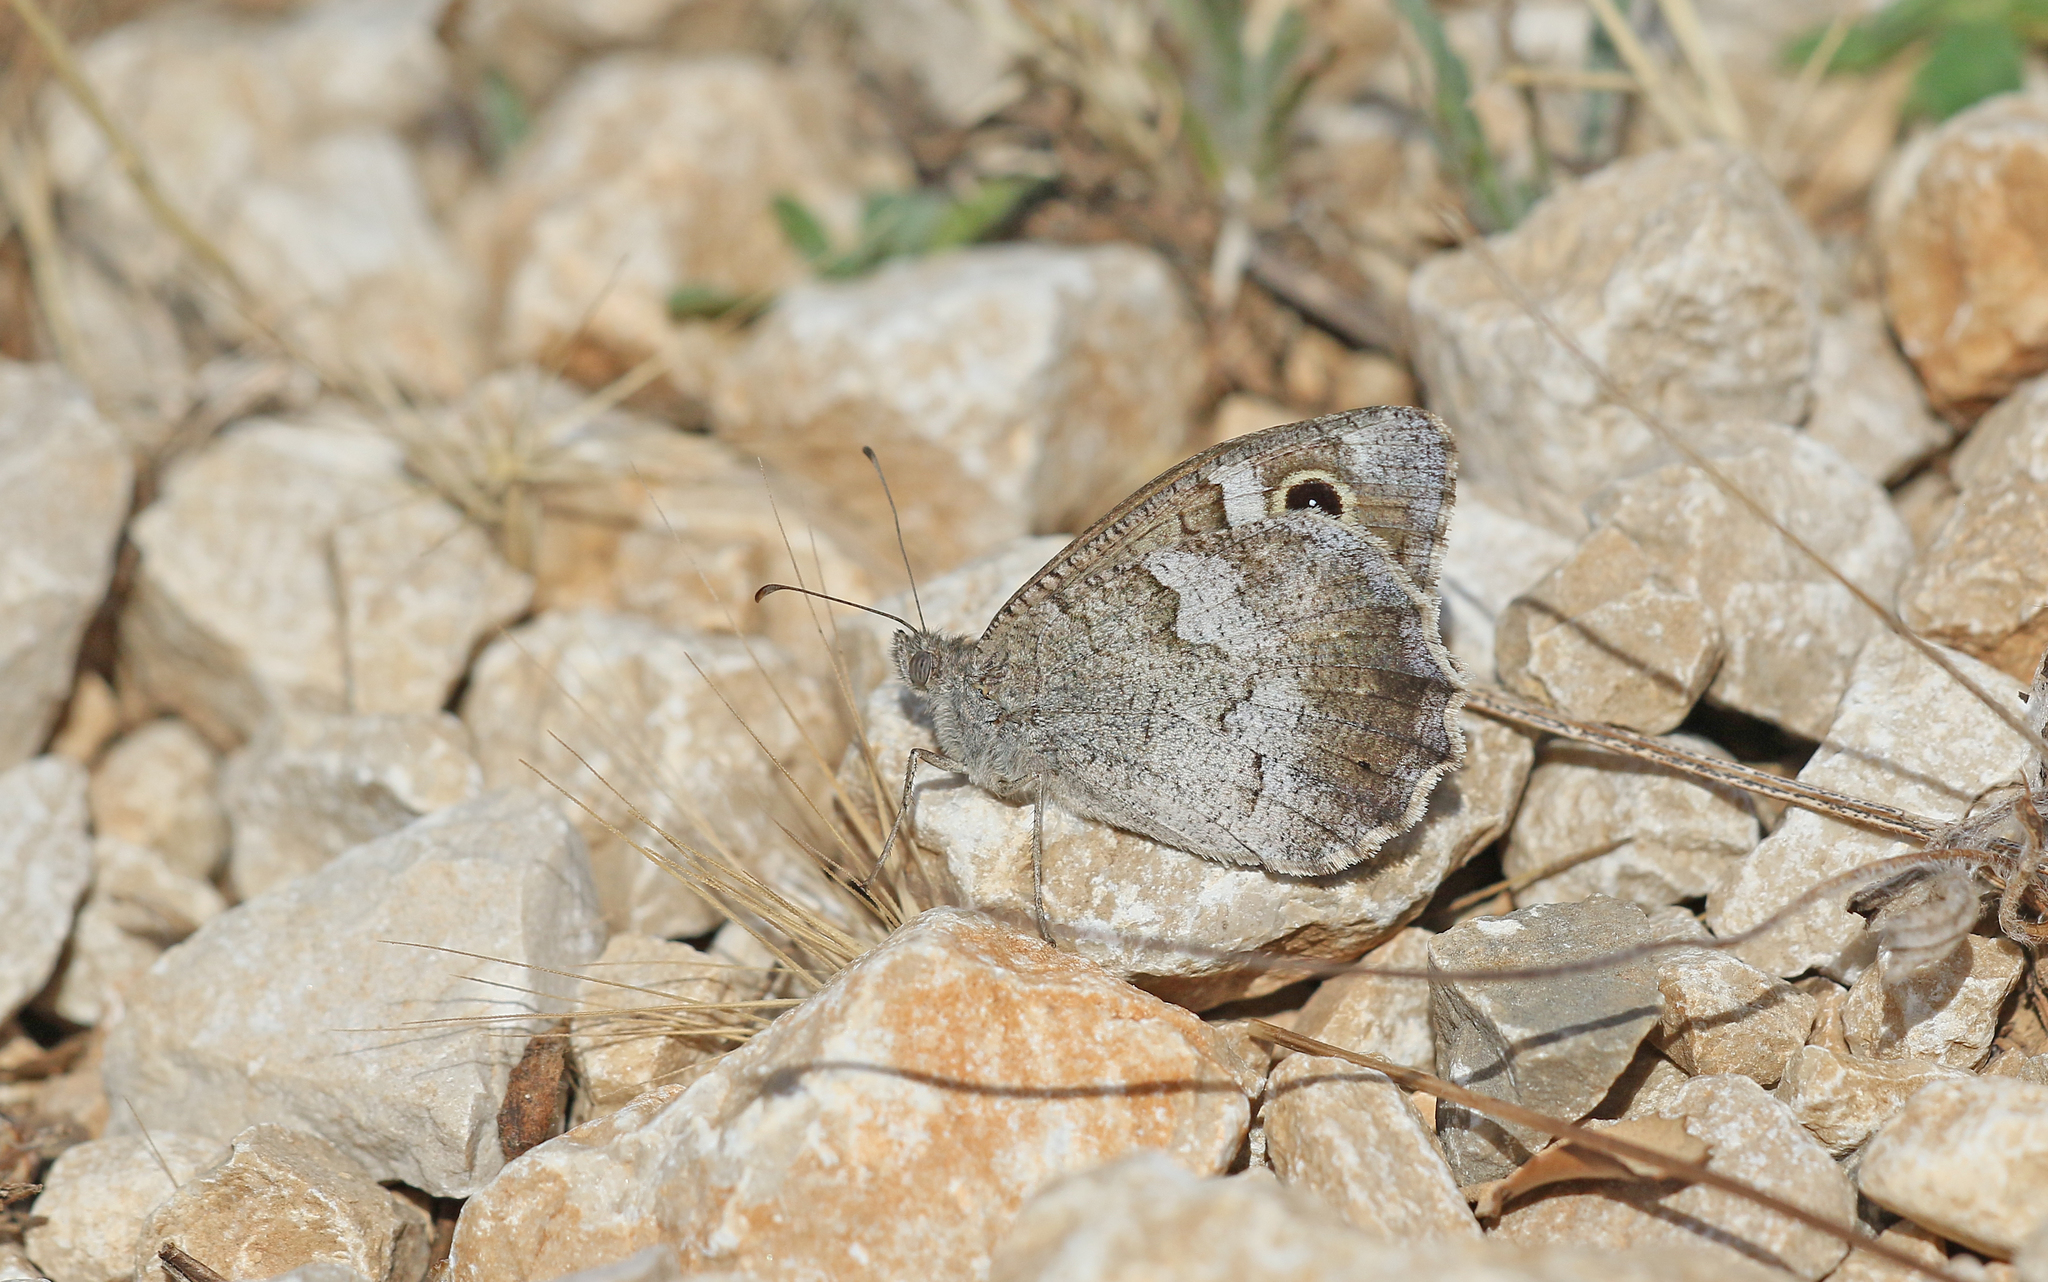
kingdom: Animalia
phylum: Arthropoda
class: Insecta
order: Lepidoptera
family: Nymphalidae
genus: Hipparchia
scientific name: Hipparchia statilinus
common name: Tree grayling
